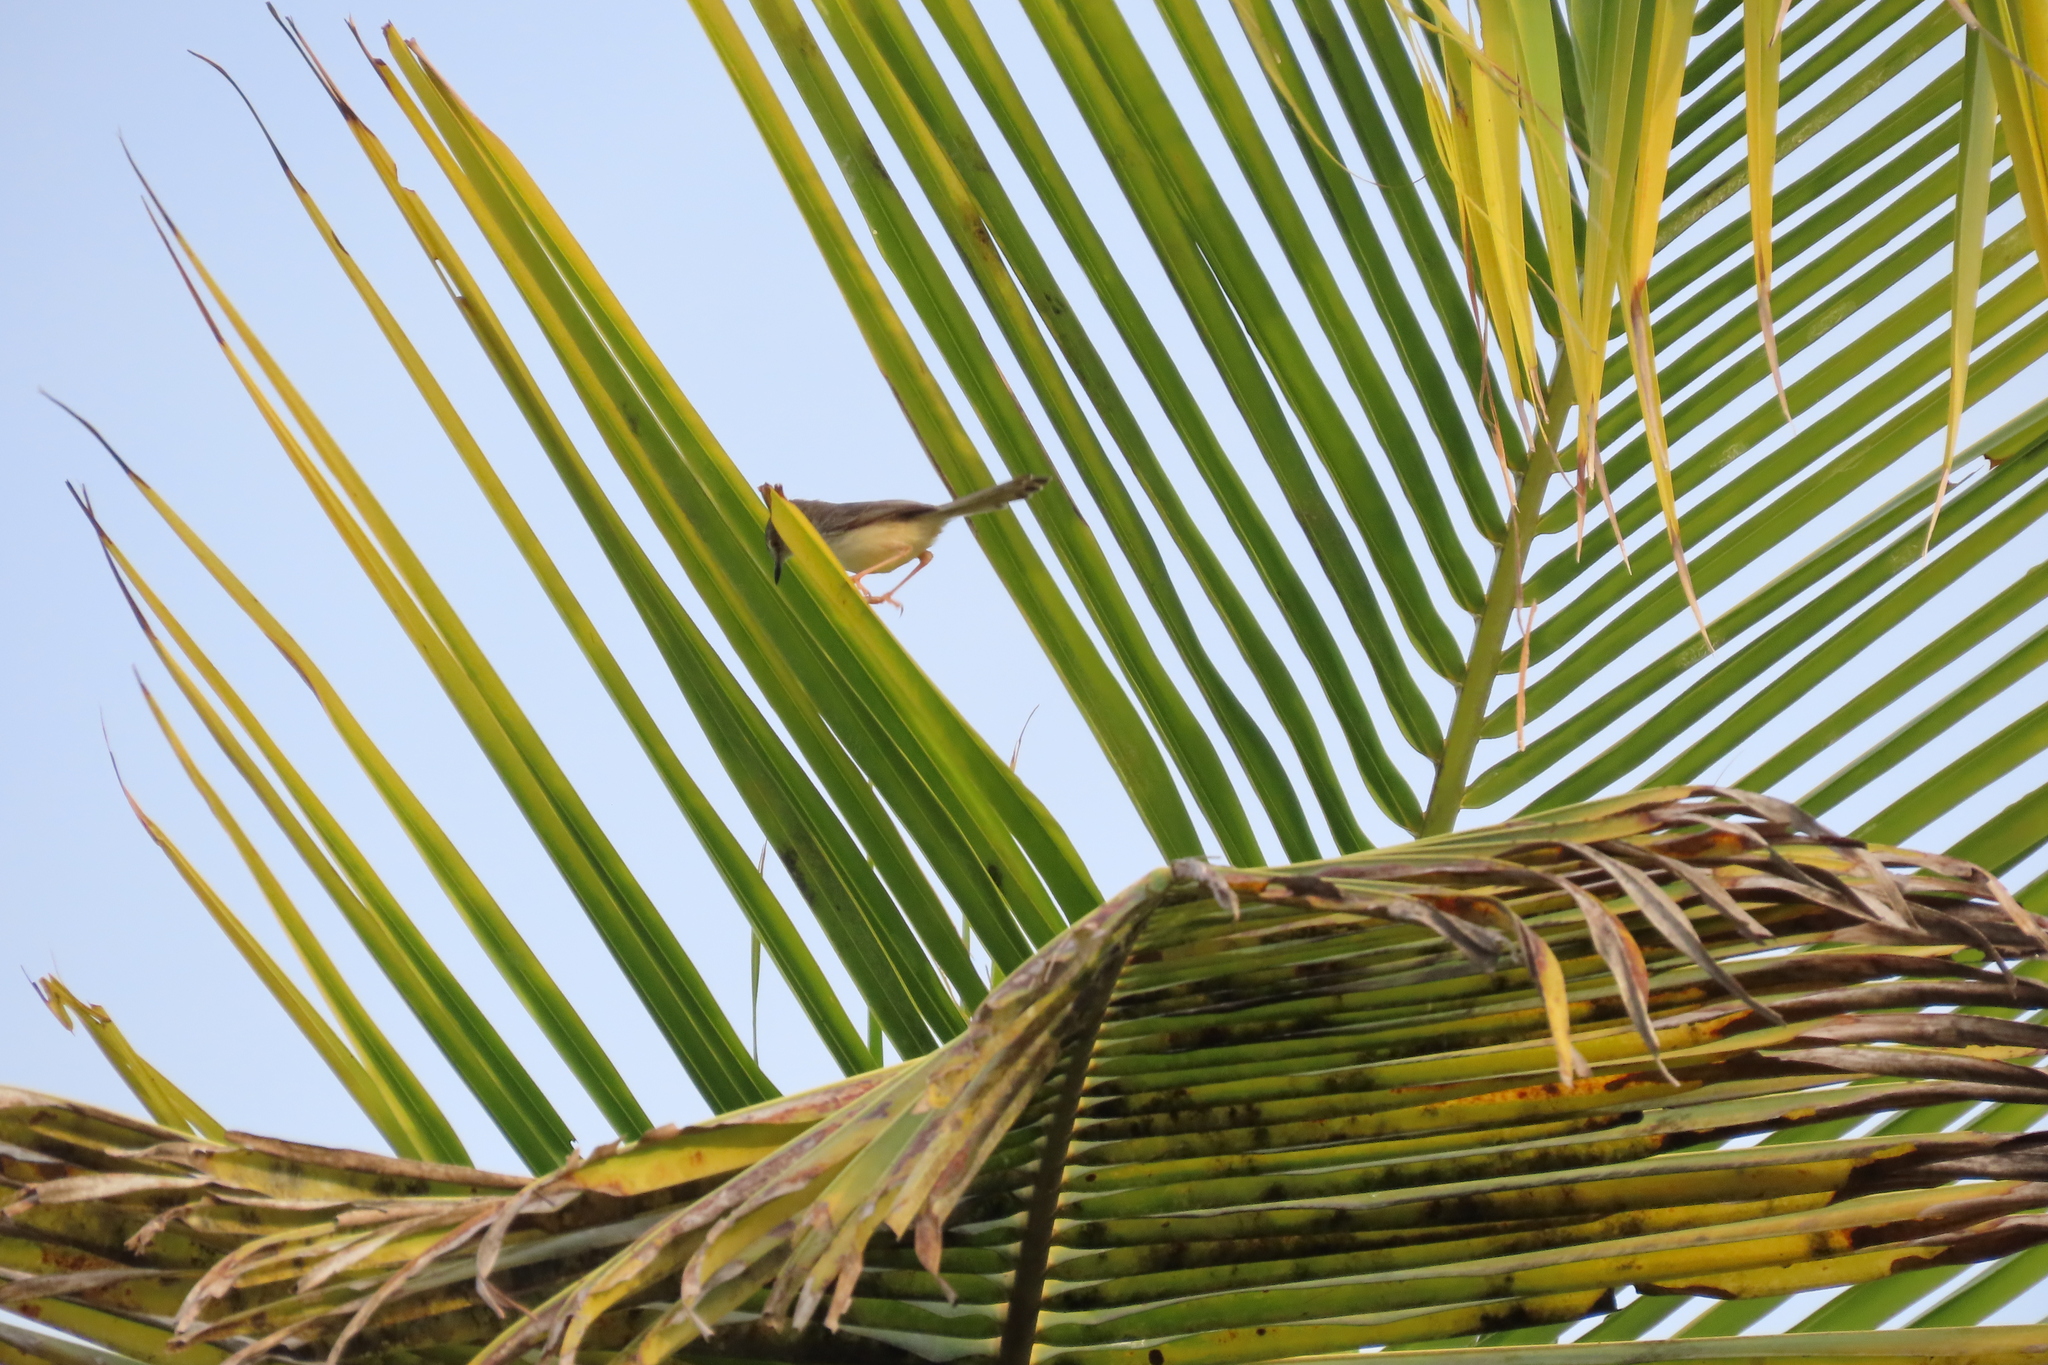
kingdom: Animalia
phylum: Chordata
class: Aves
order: Passeriformes
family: Cisticolidae
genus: Prinia
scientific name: Prinia inornata
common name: Plain prinia
